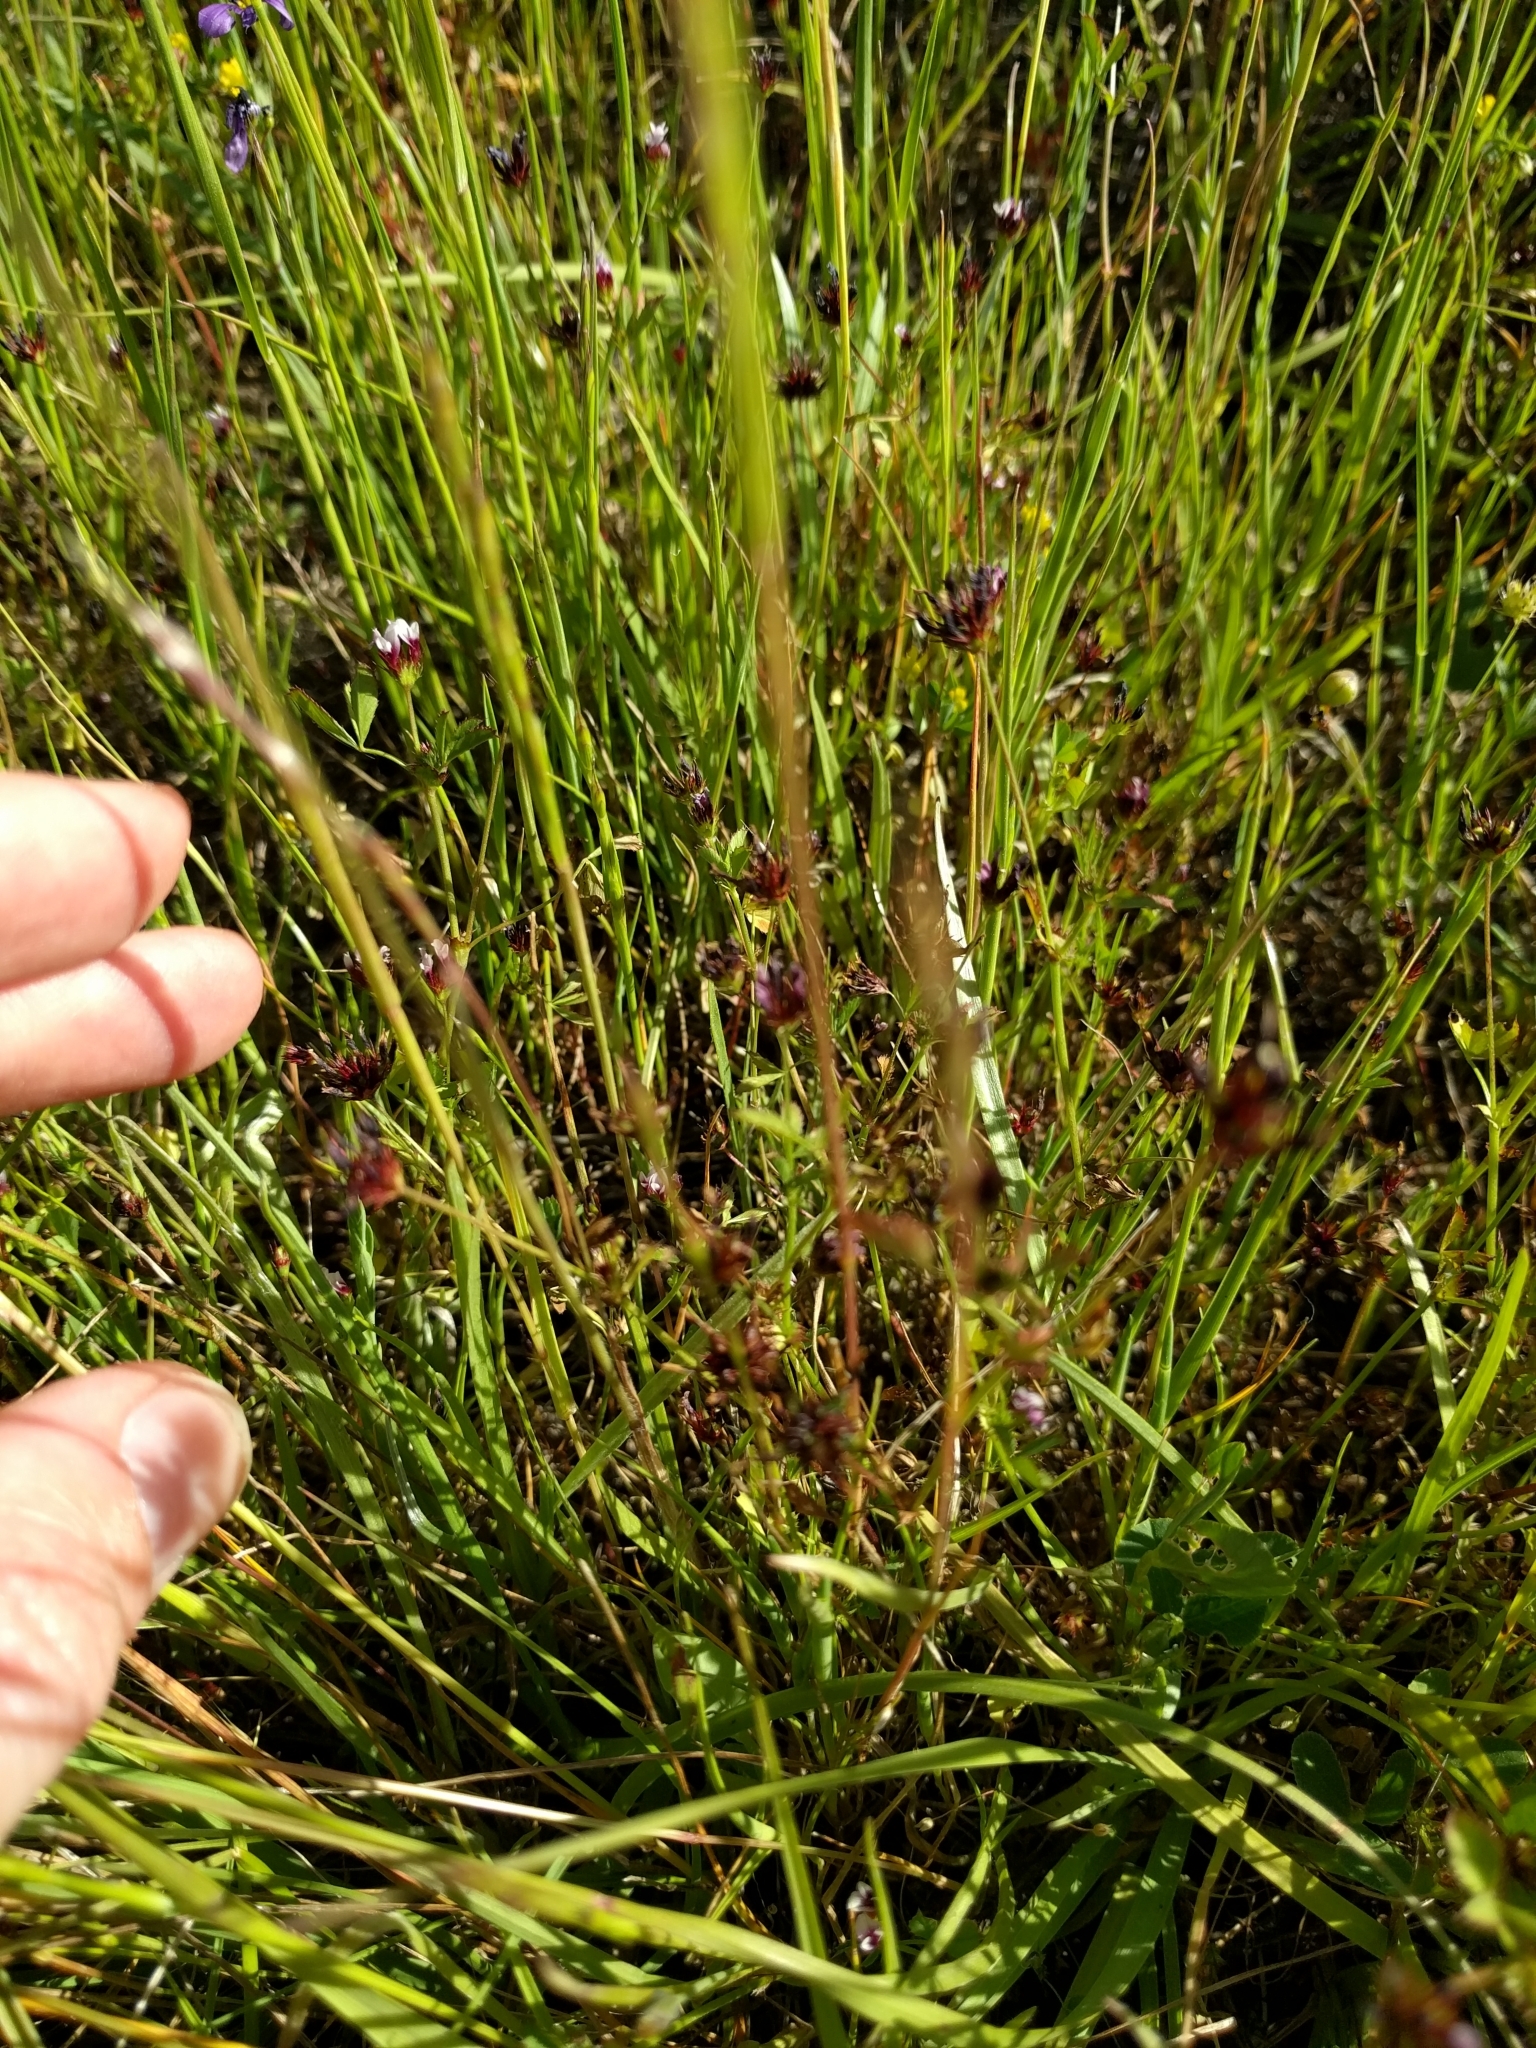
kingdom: Plantae
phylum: Tracheophyta
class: Magnoliopsida
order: Fabales
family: Fabaceae
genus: Trifolium
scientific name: Trifolium willdenovii
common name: Tomcat clover
